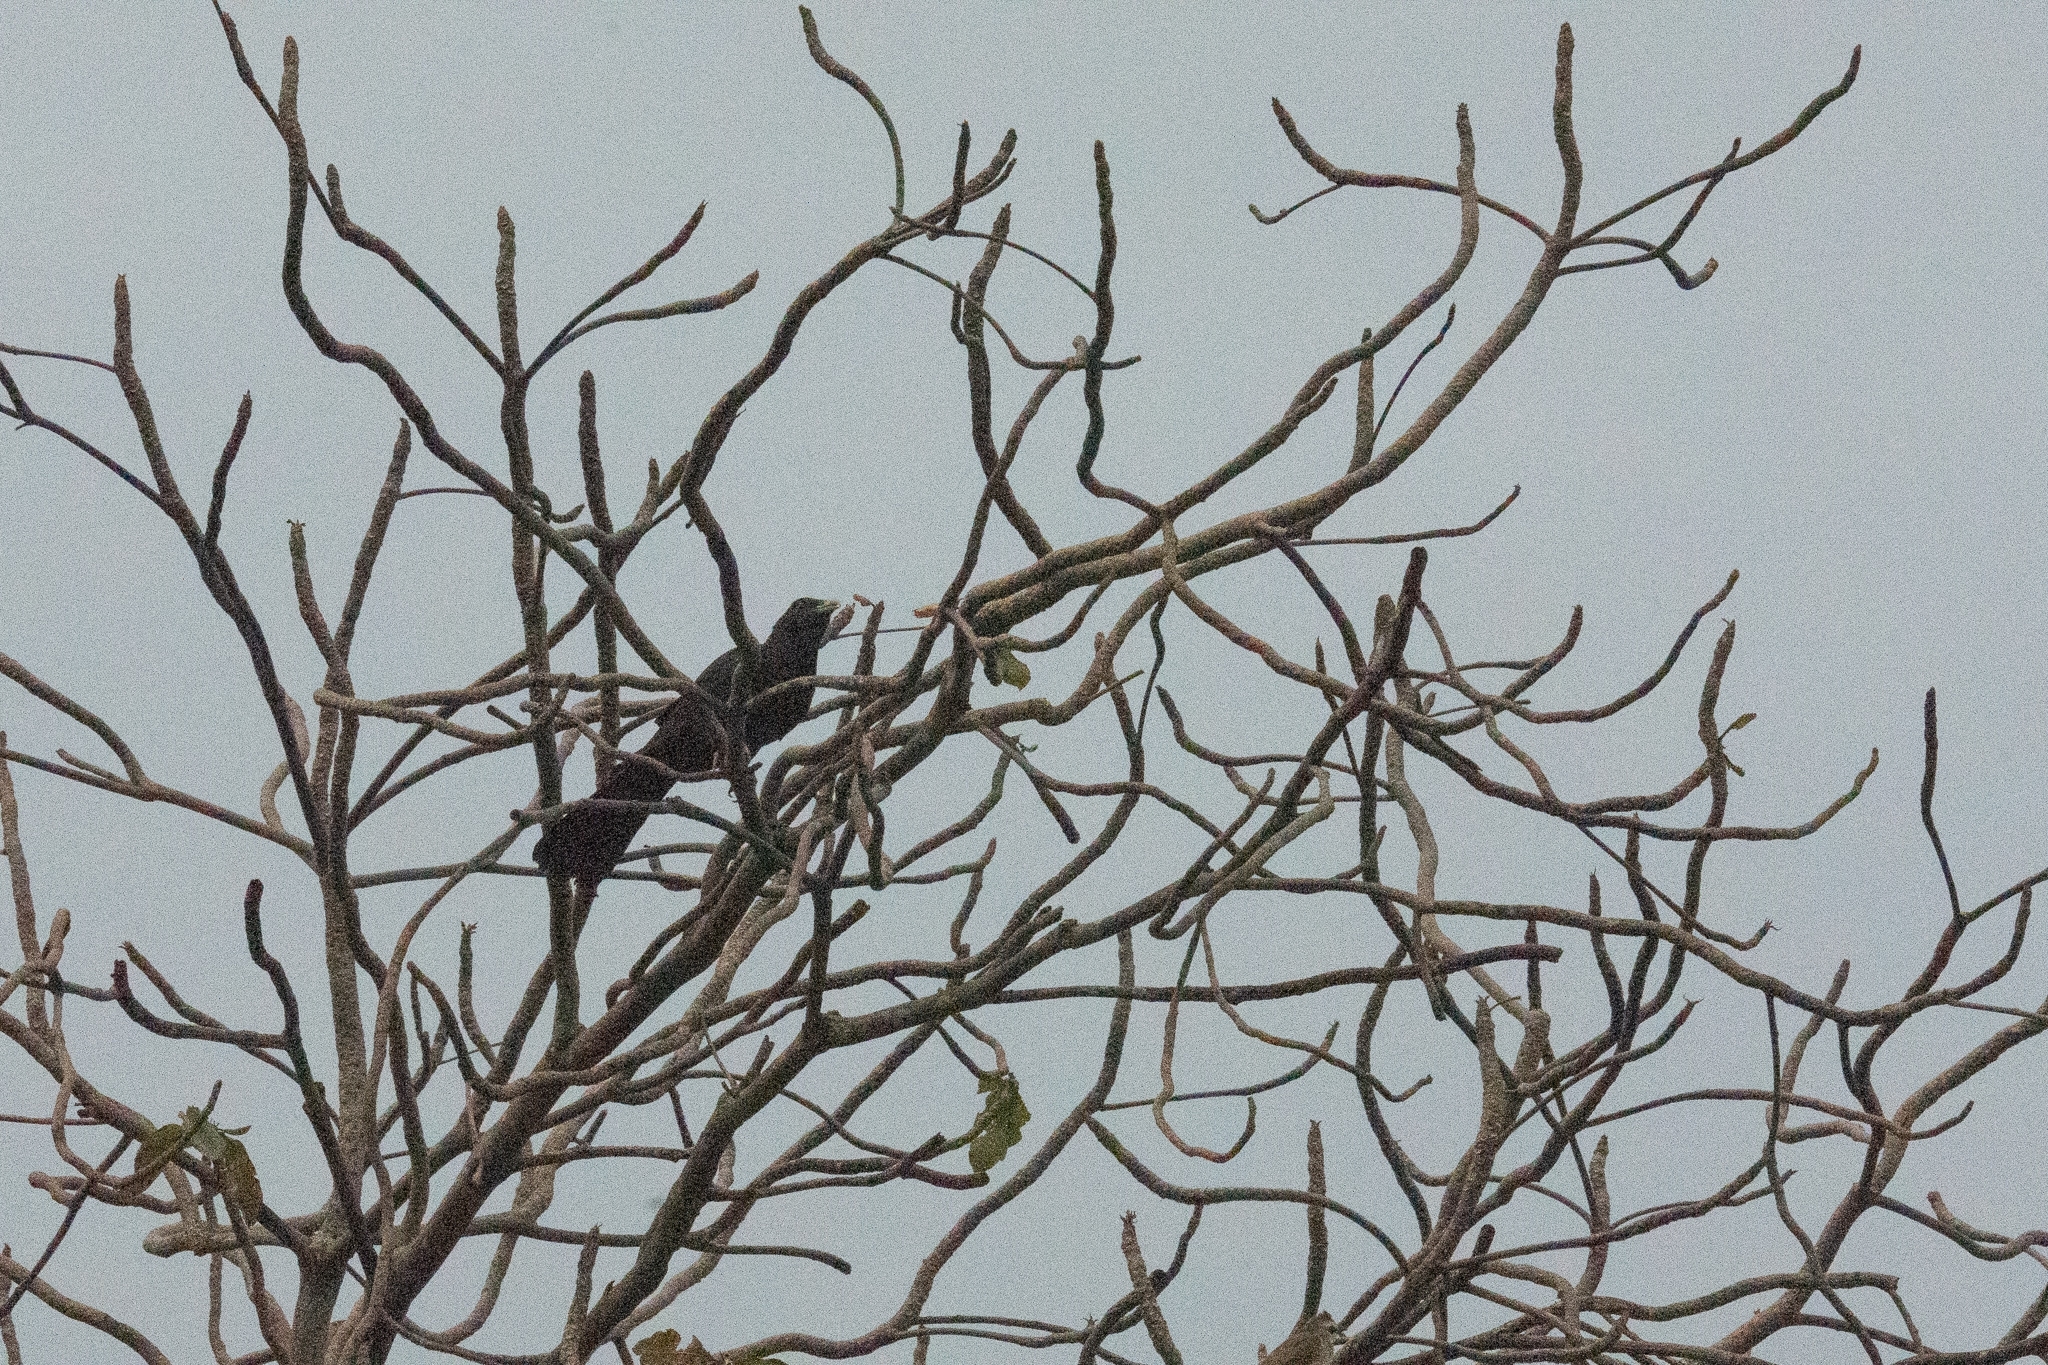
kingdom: Animalia
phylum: Chordata
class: Aves
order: Cuculiformes
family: Cuculidae
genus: Eudynamys
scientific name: Eudynamys scolopaceus
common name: Asian koel
